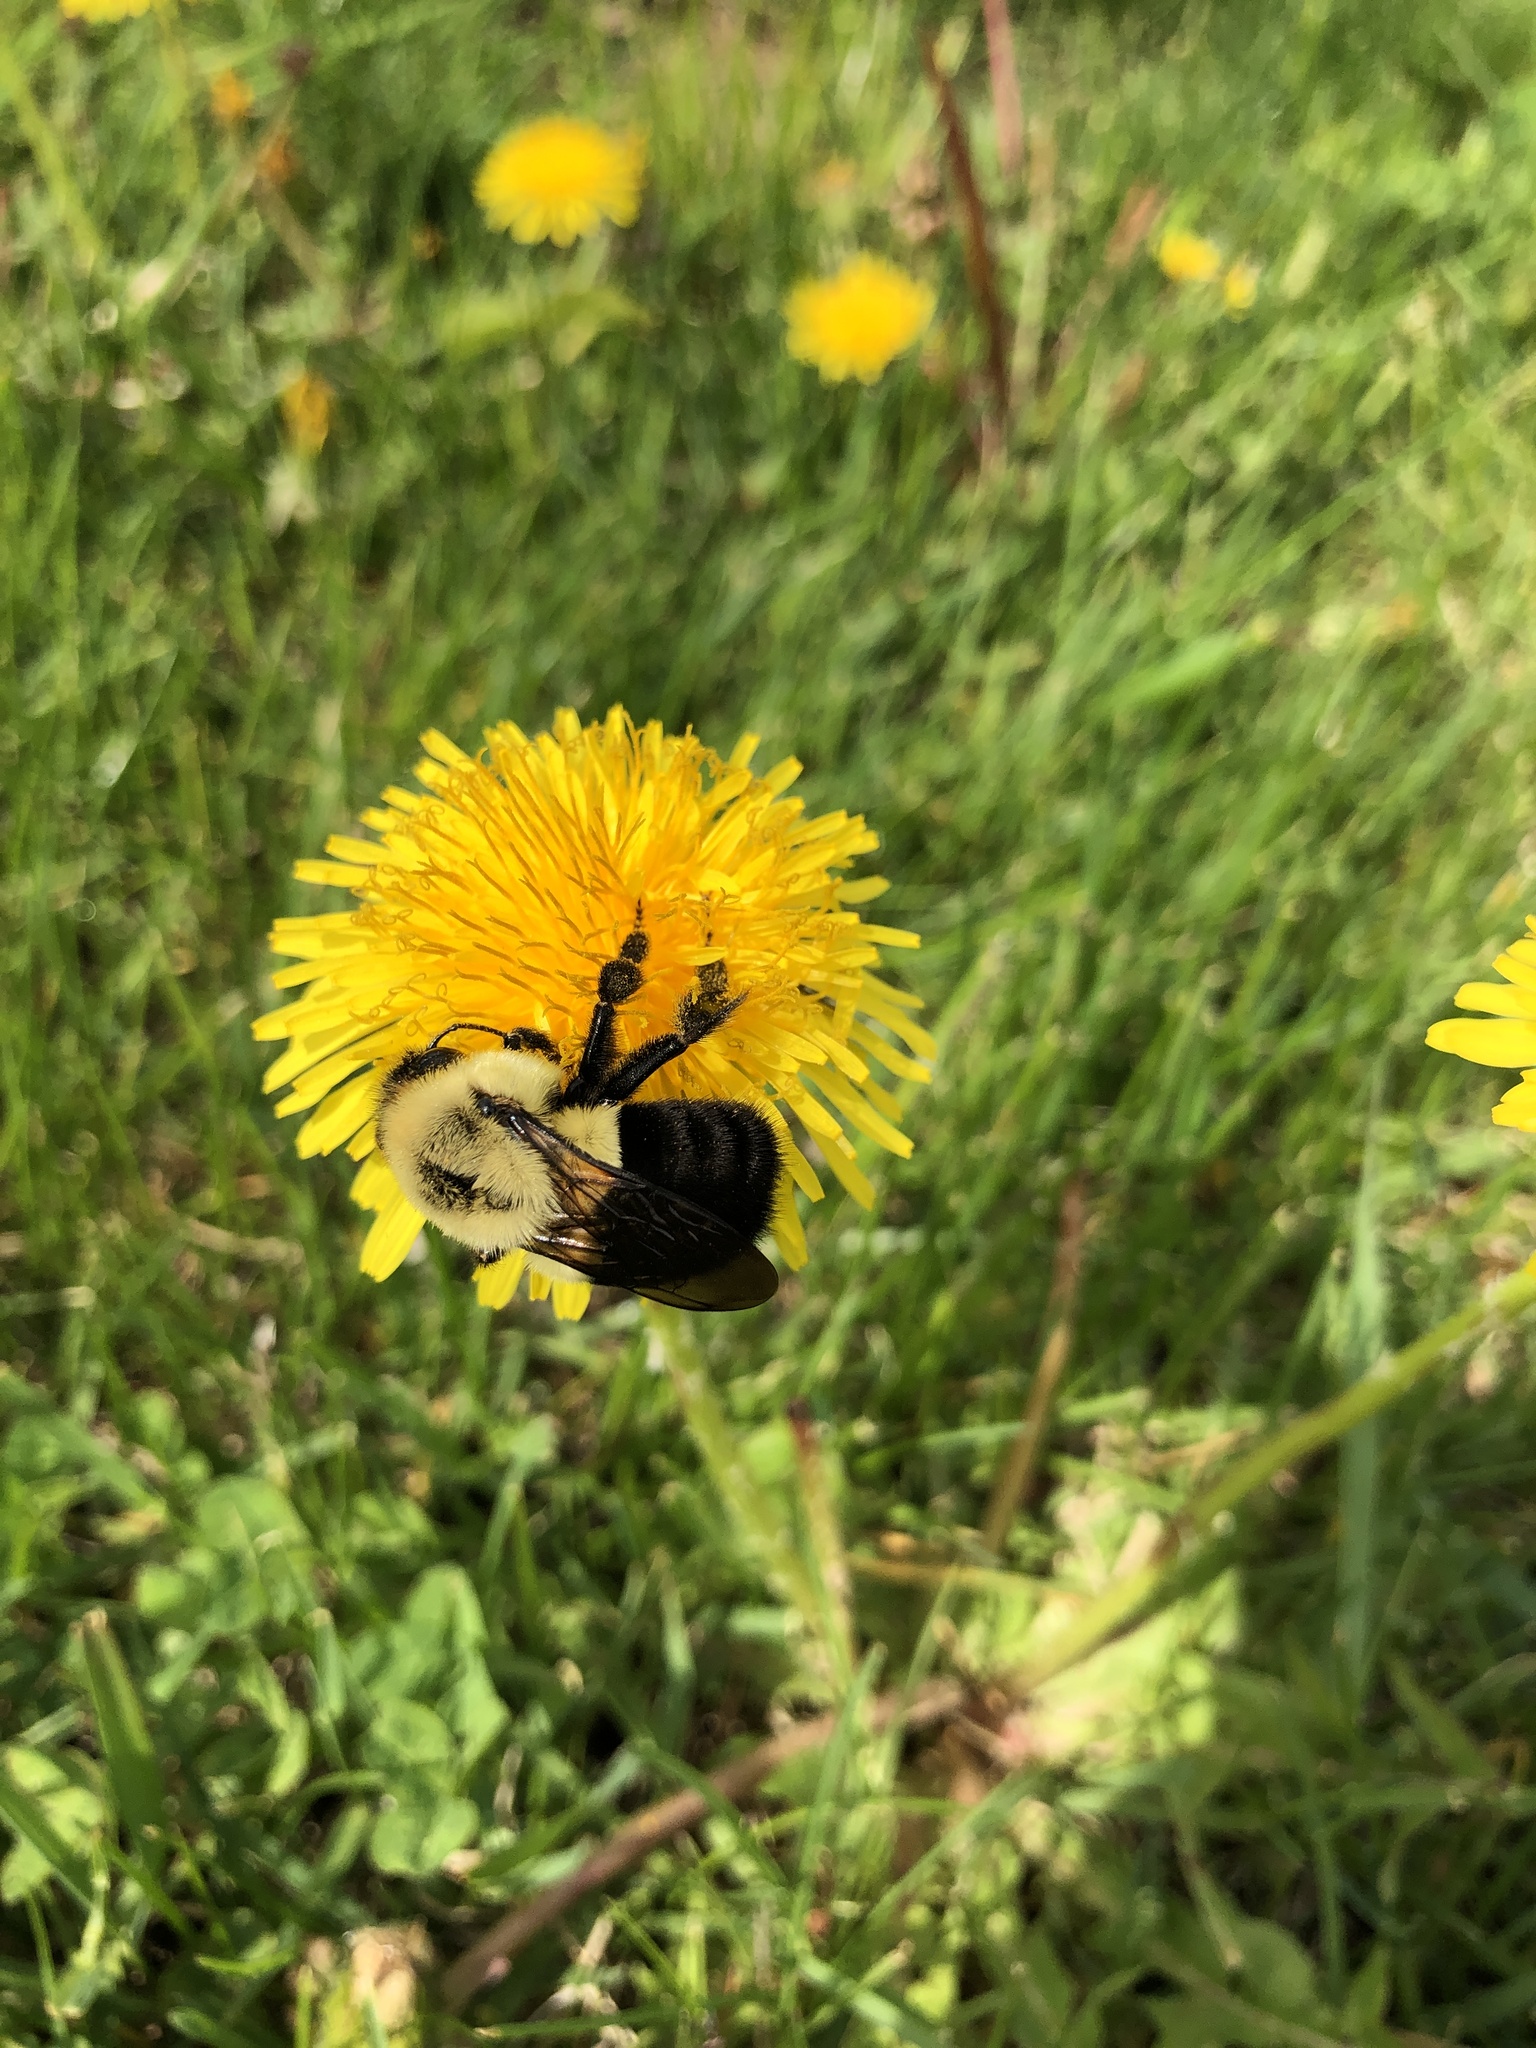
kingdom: Animalia
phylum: Arthropoda
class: Insecta
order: Hymenoptera
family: Apidae
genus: Bombus
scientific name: Bombus impatiens
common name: Common eastern bumble bee
